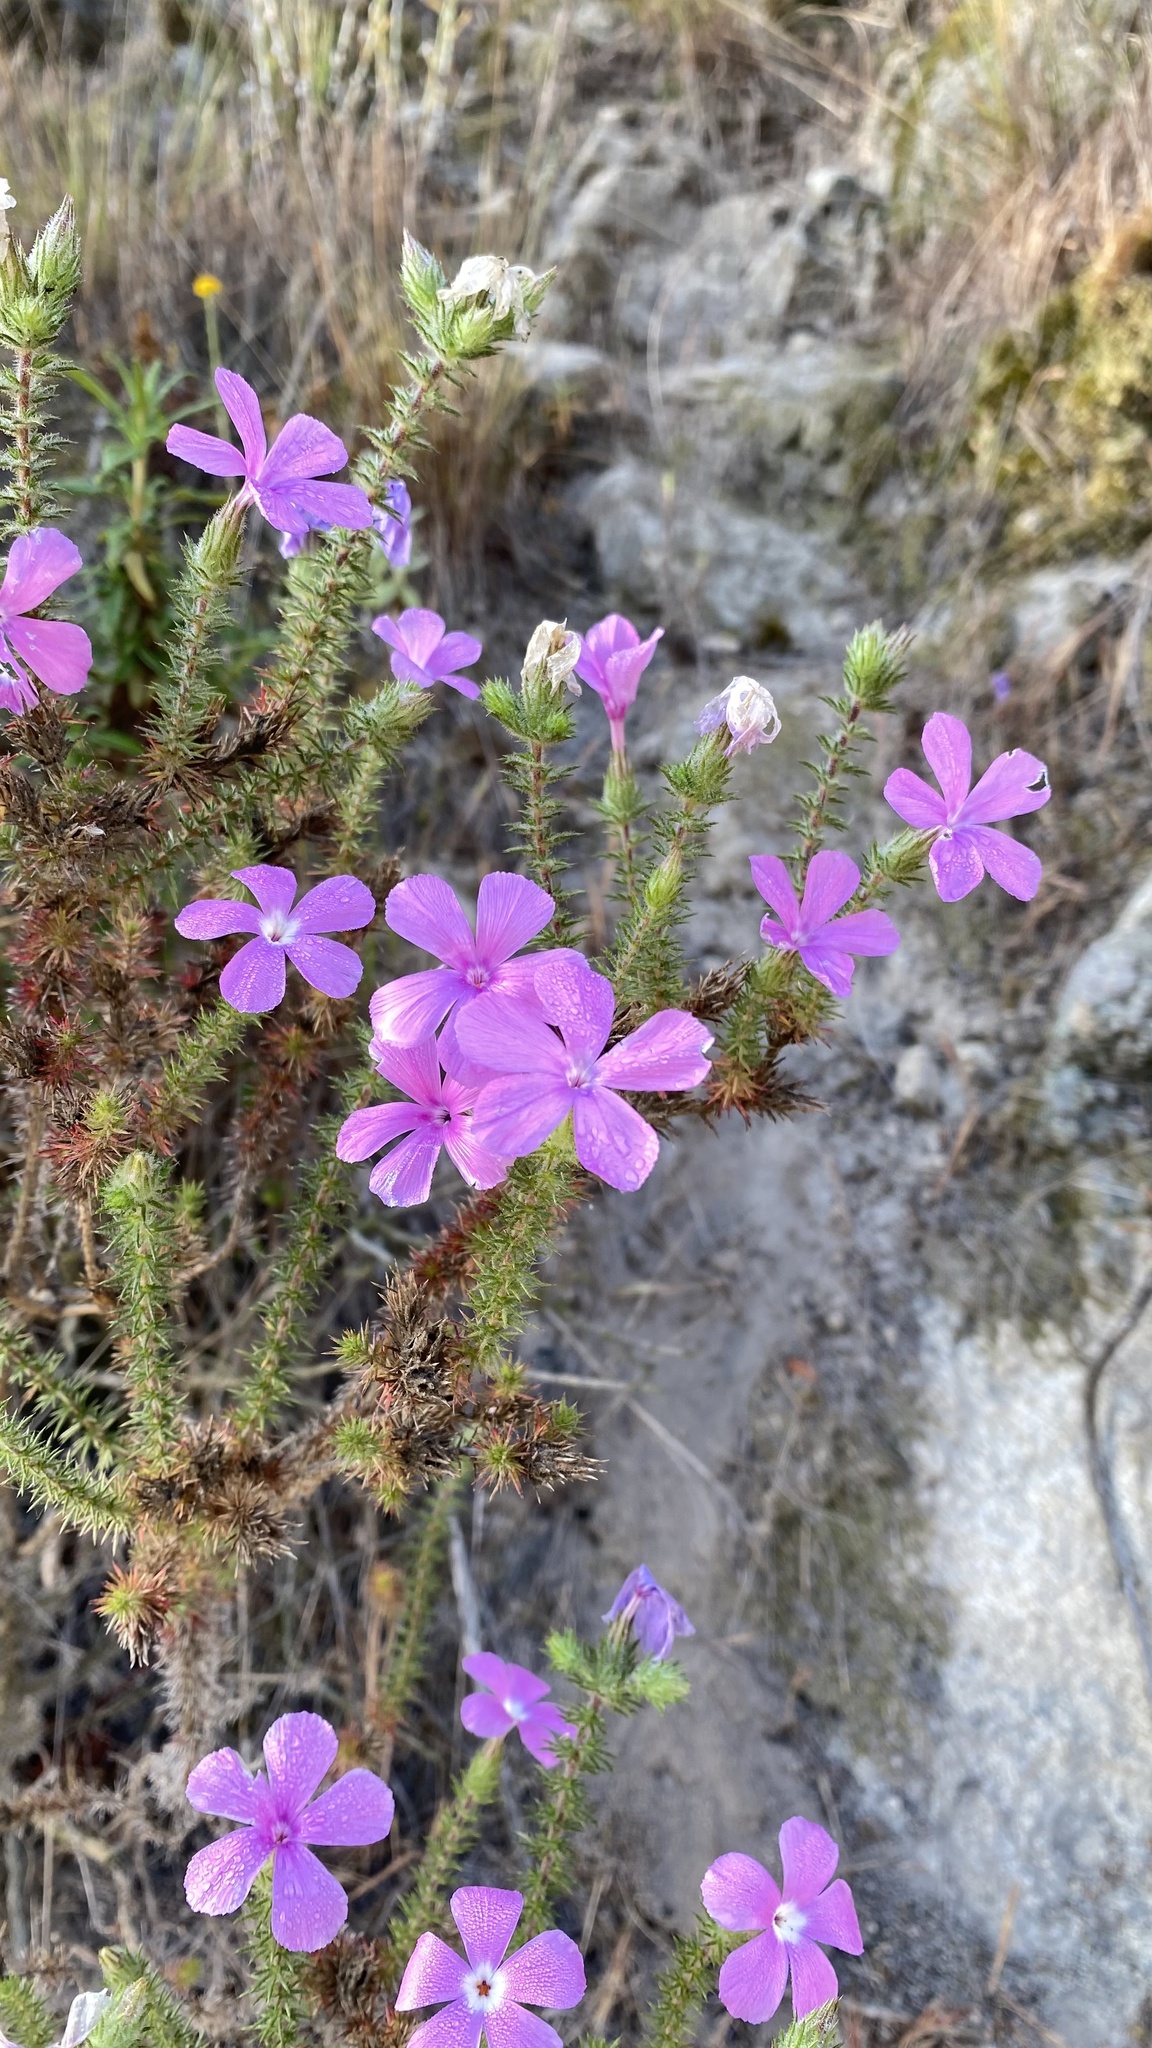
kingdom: Plantae
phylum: Tracheophyta
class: Magnoliopsida
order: Ericales
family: Polemoniaceae
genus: Linanthus
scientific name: Linanthus californicus
